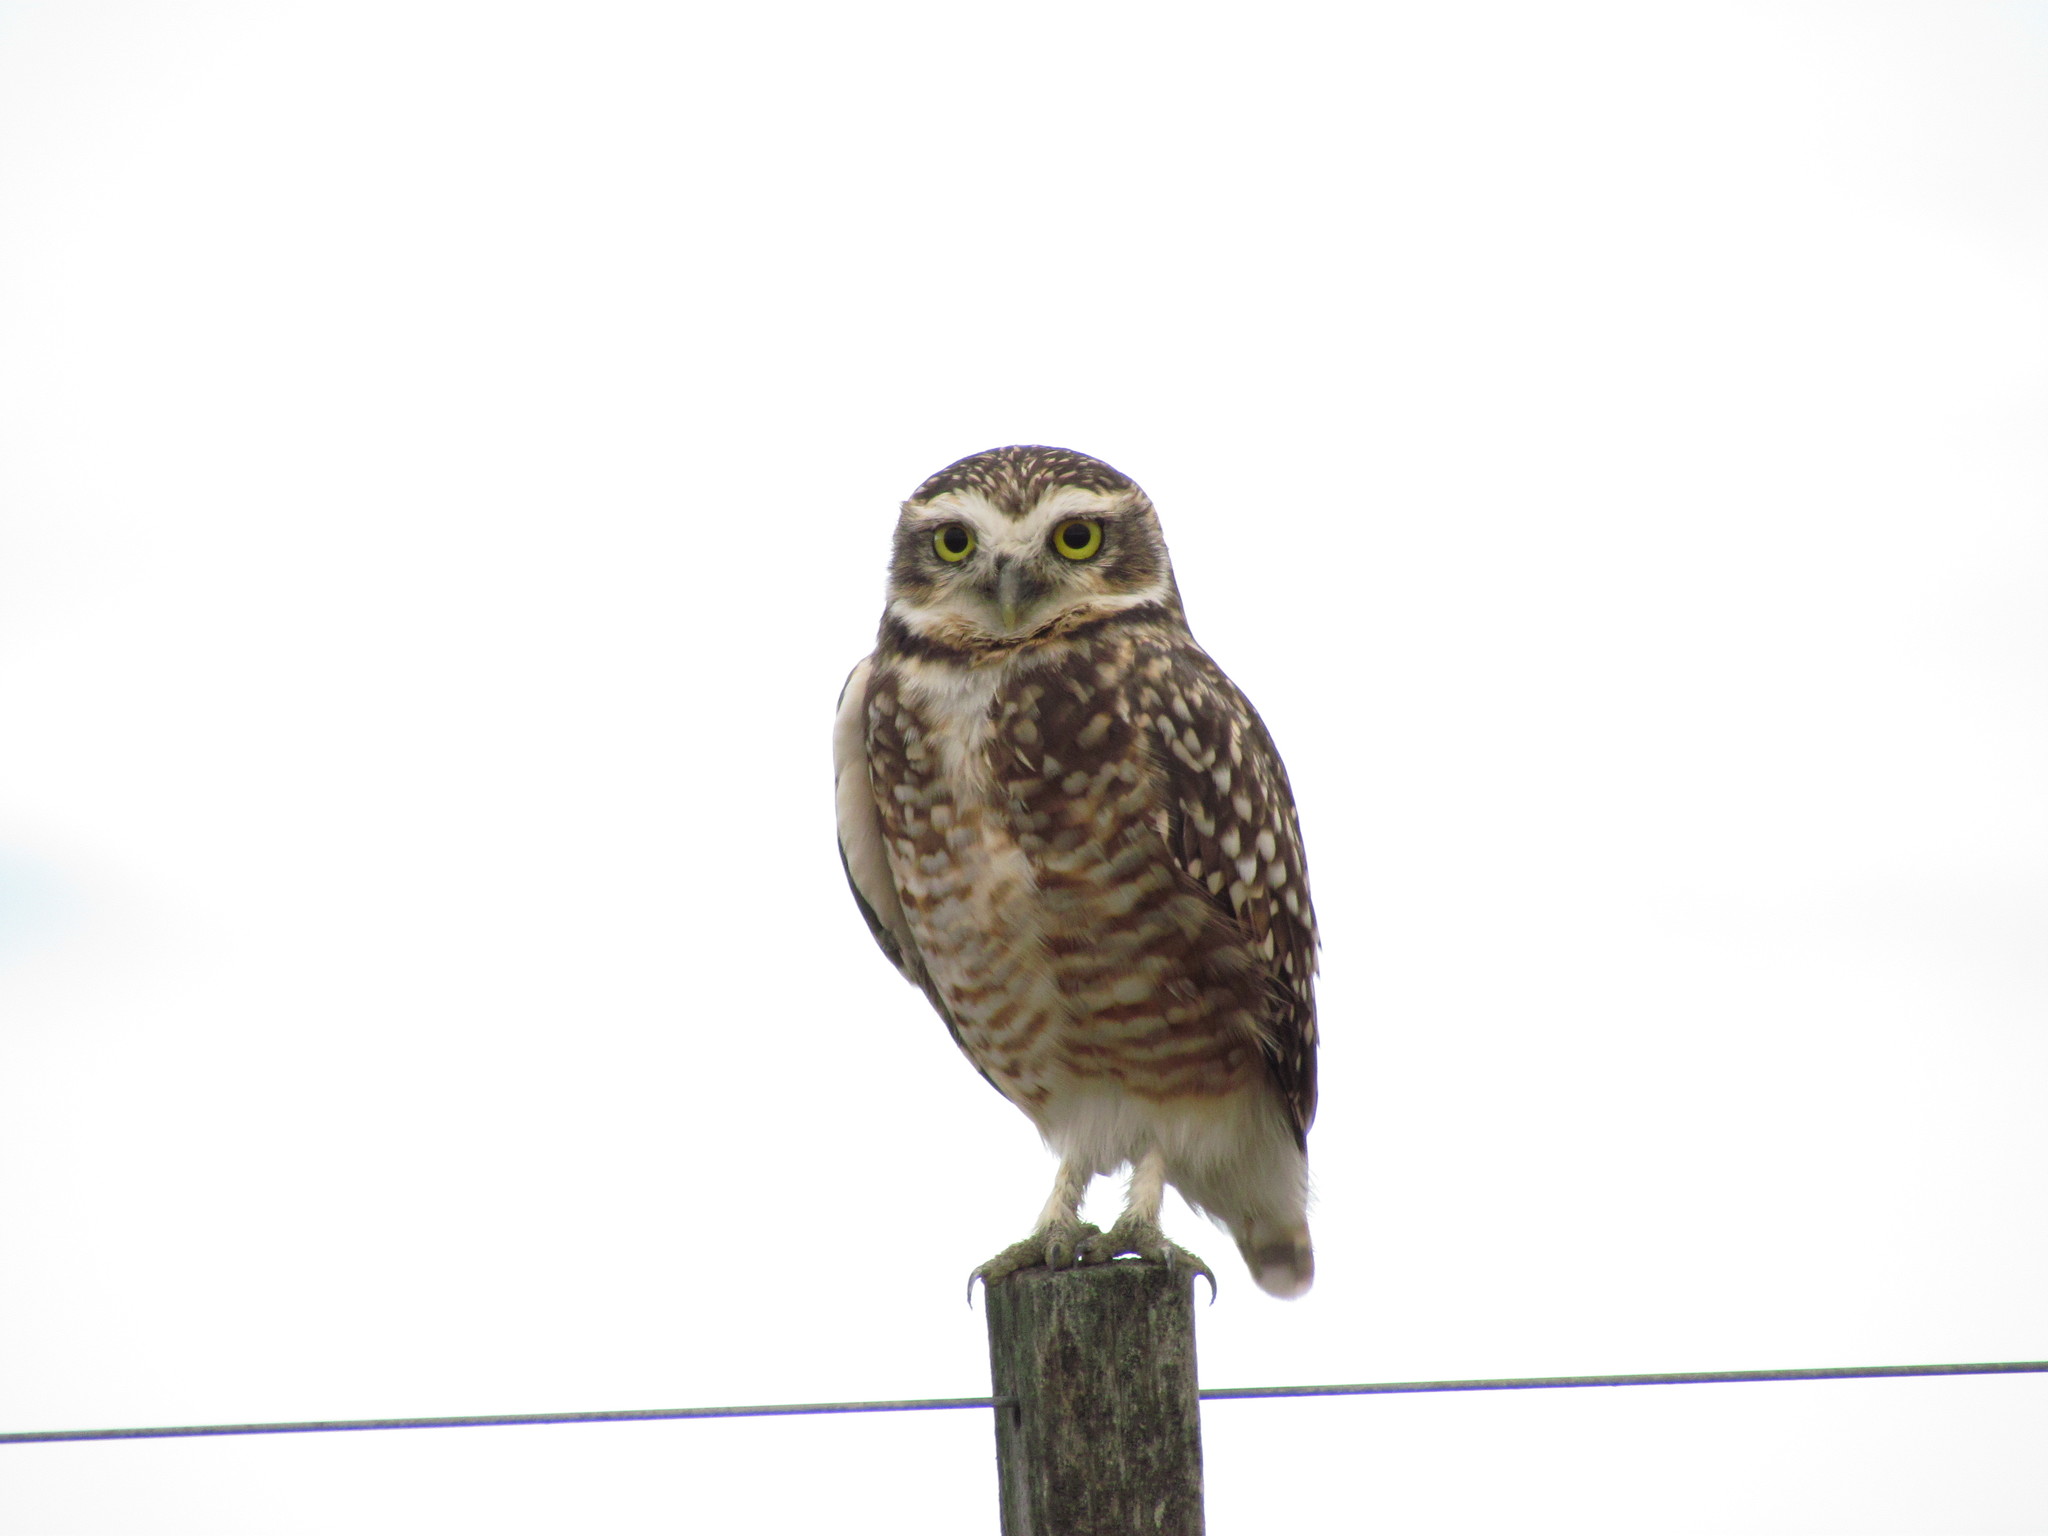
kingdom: Animalia
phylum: Chordata
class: Aves
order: Strigiformes
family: Strigidae
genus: Athene
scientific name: Athene cunicularia
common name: Burrowing owl
